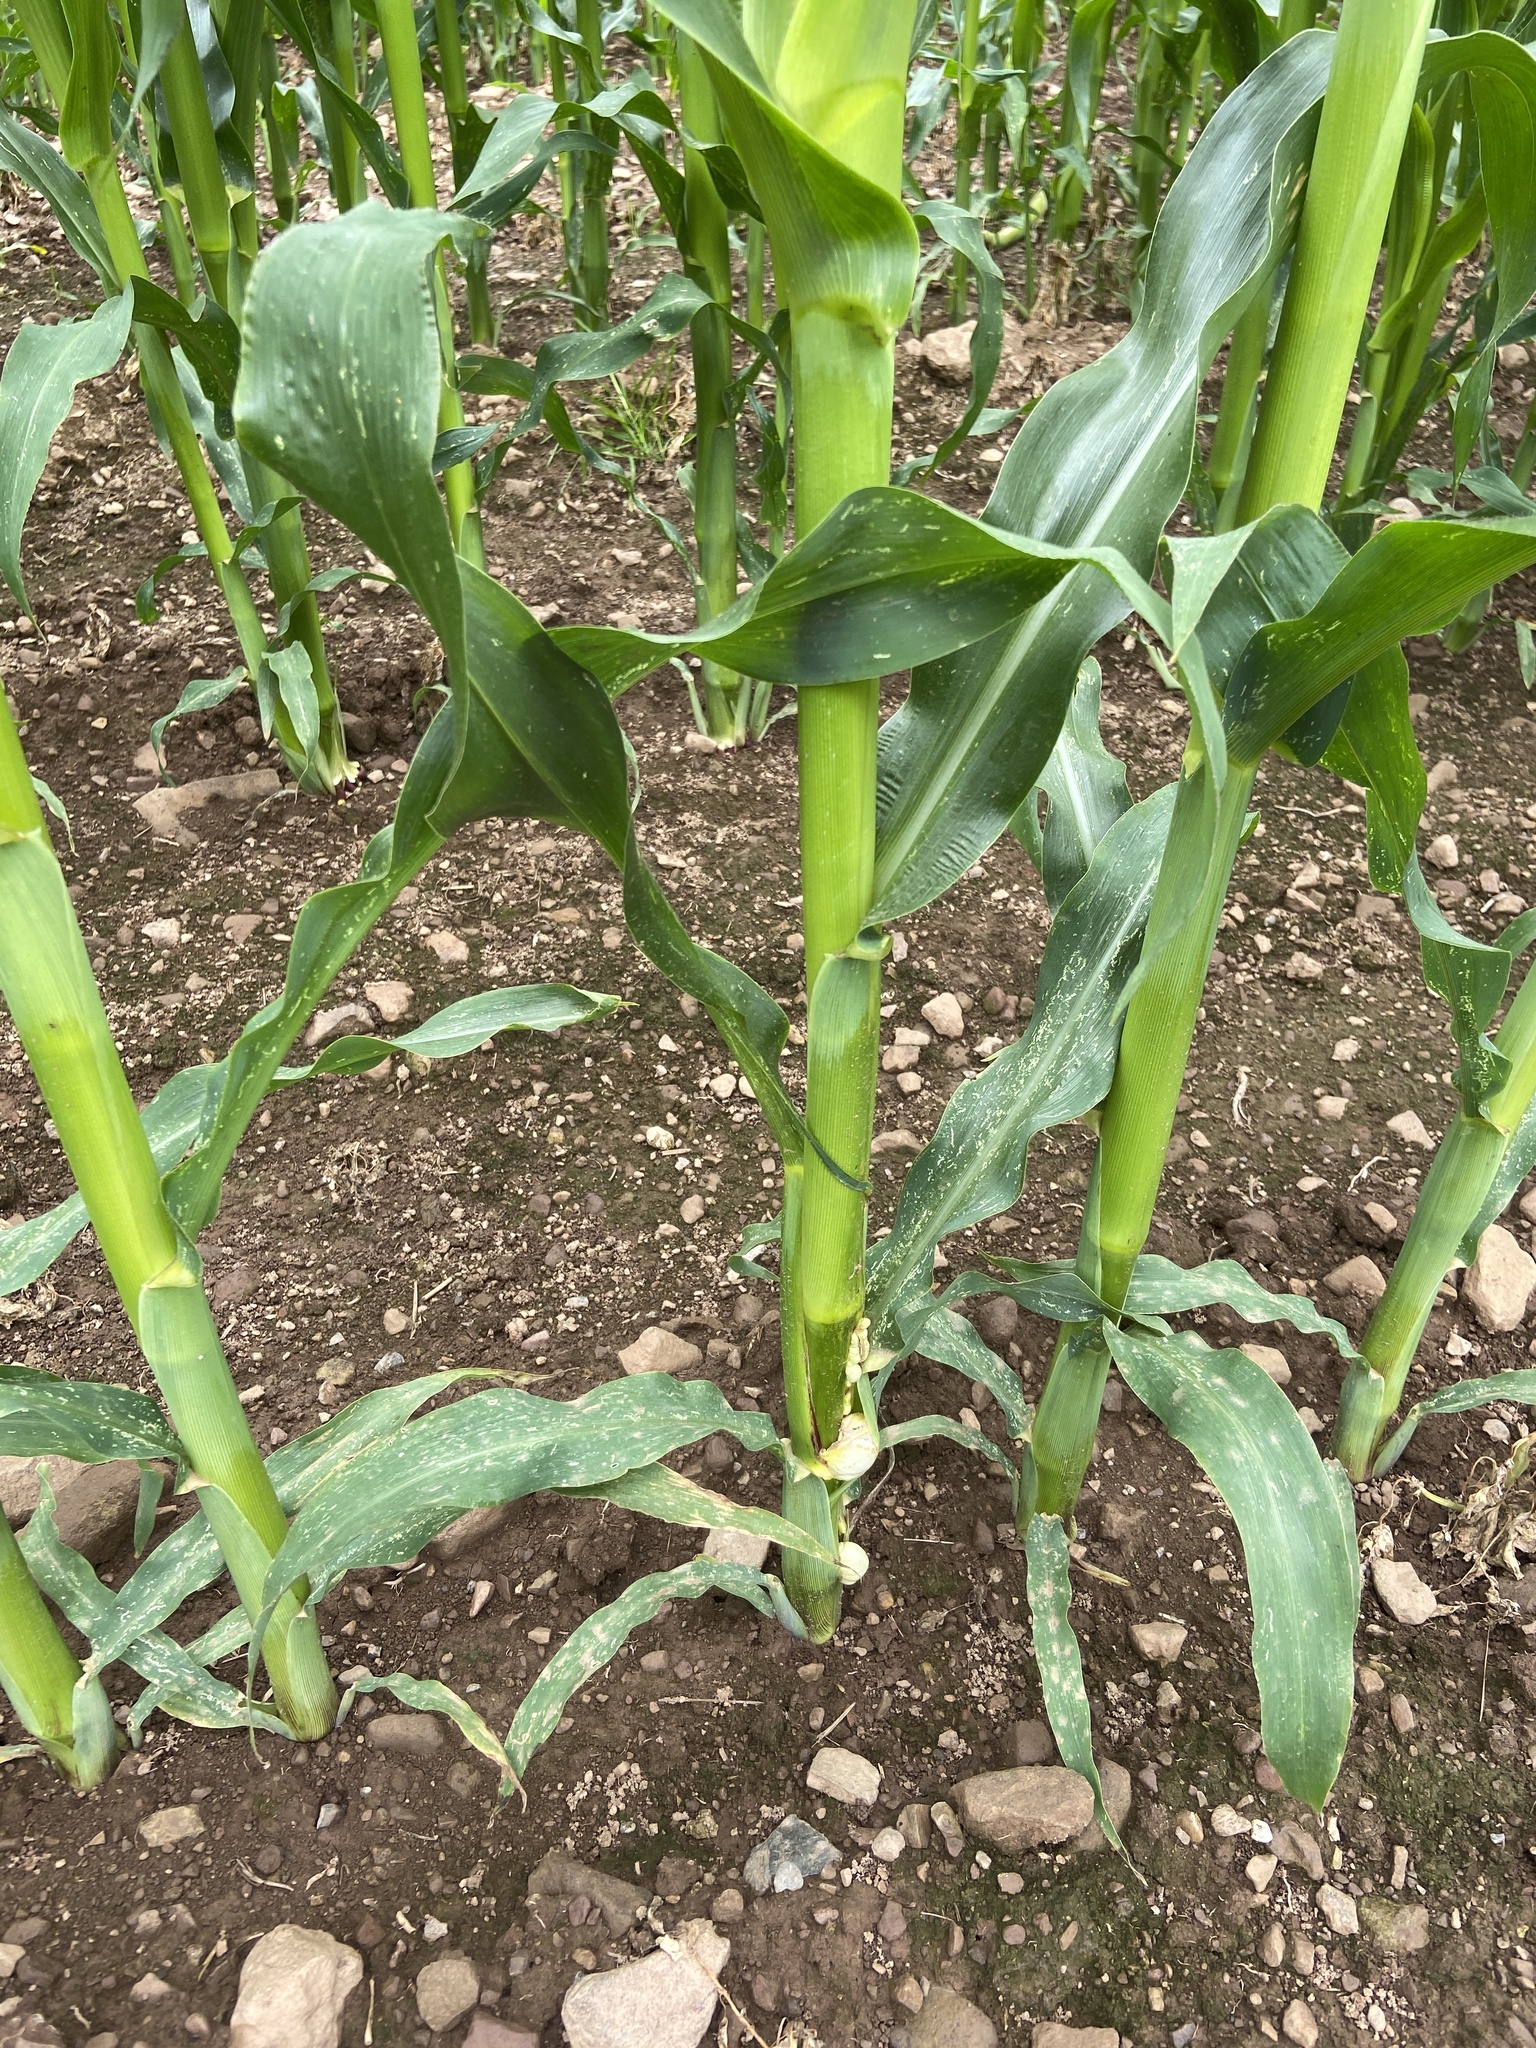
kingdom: Fungi
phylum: Basidiomycota
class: Ustilaginomycetes
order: Ustilaginales
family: Ustilaginaceae
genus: Mycosarcoma
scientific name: Mycosarcoma maydis
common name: Corn smut
